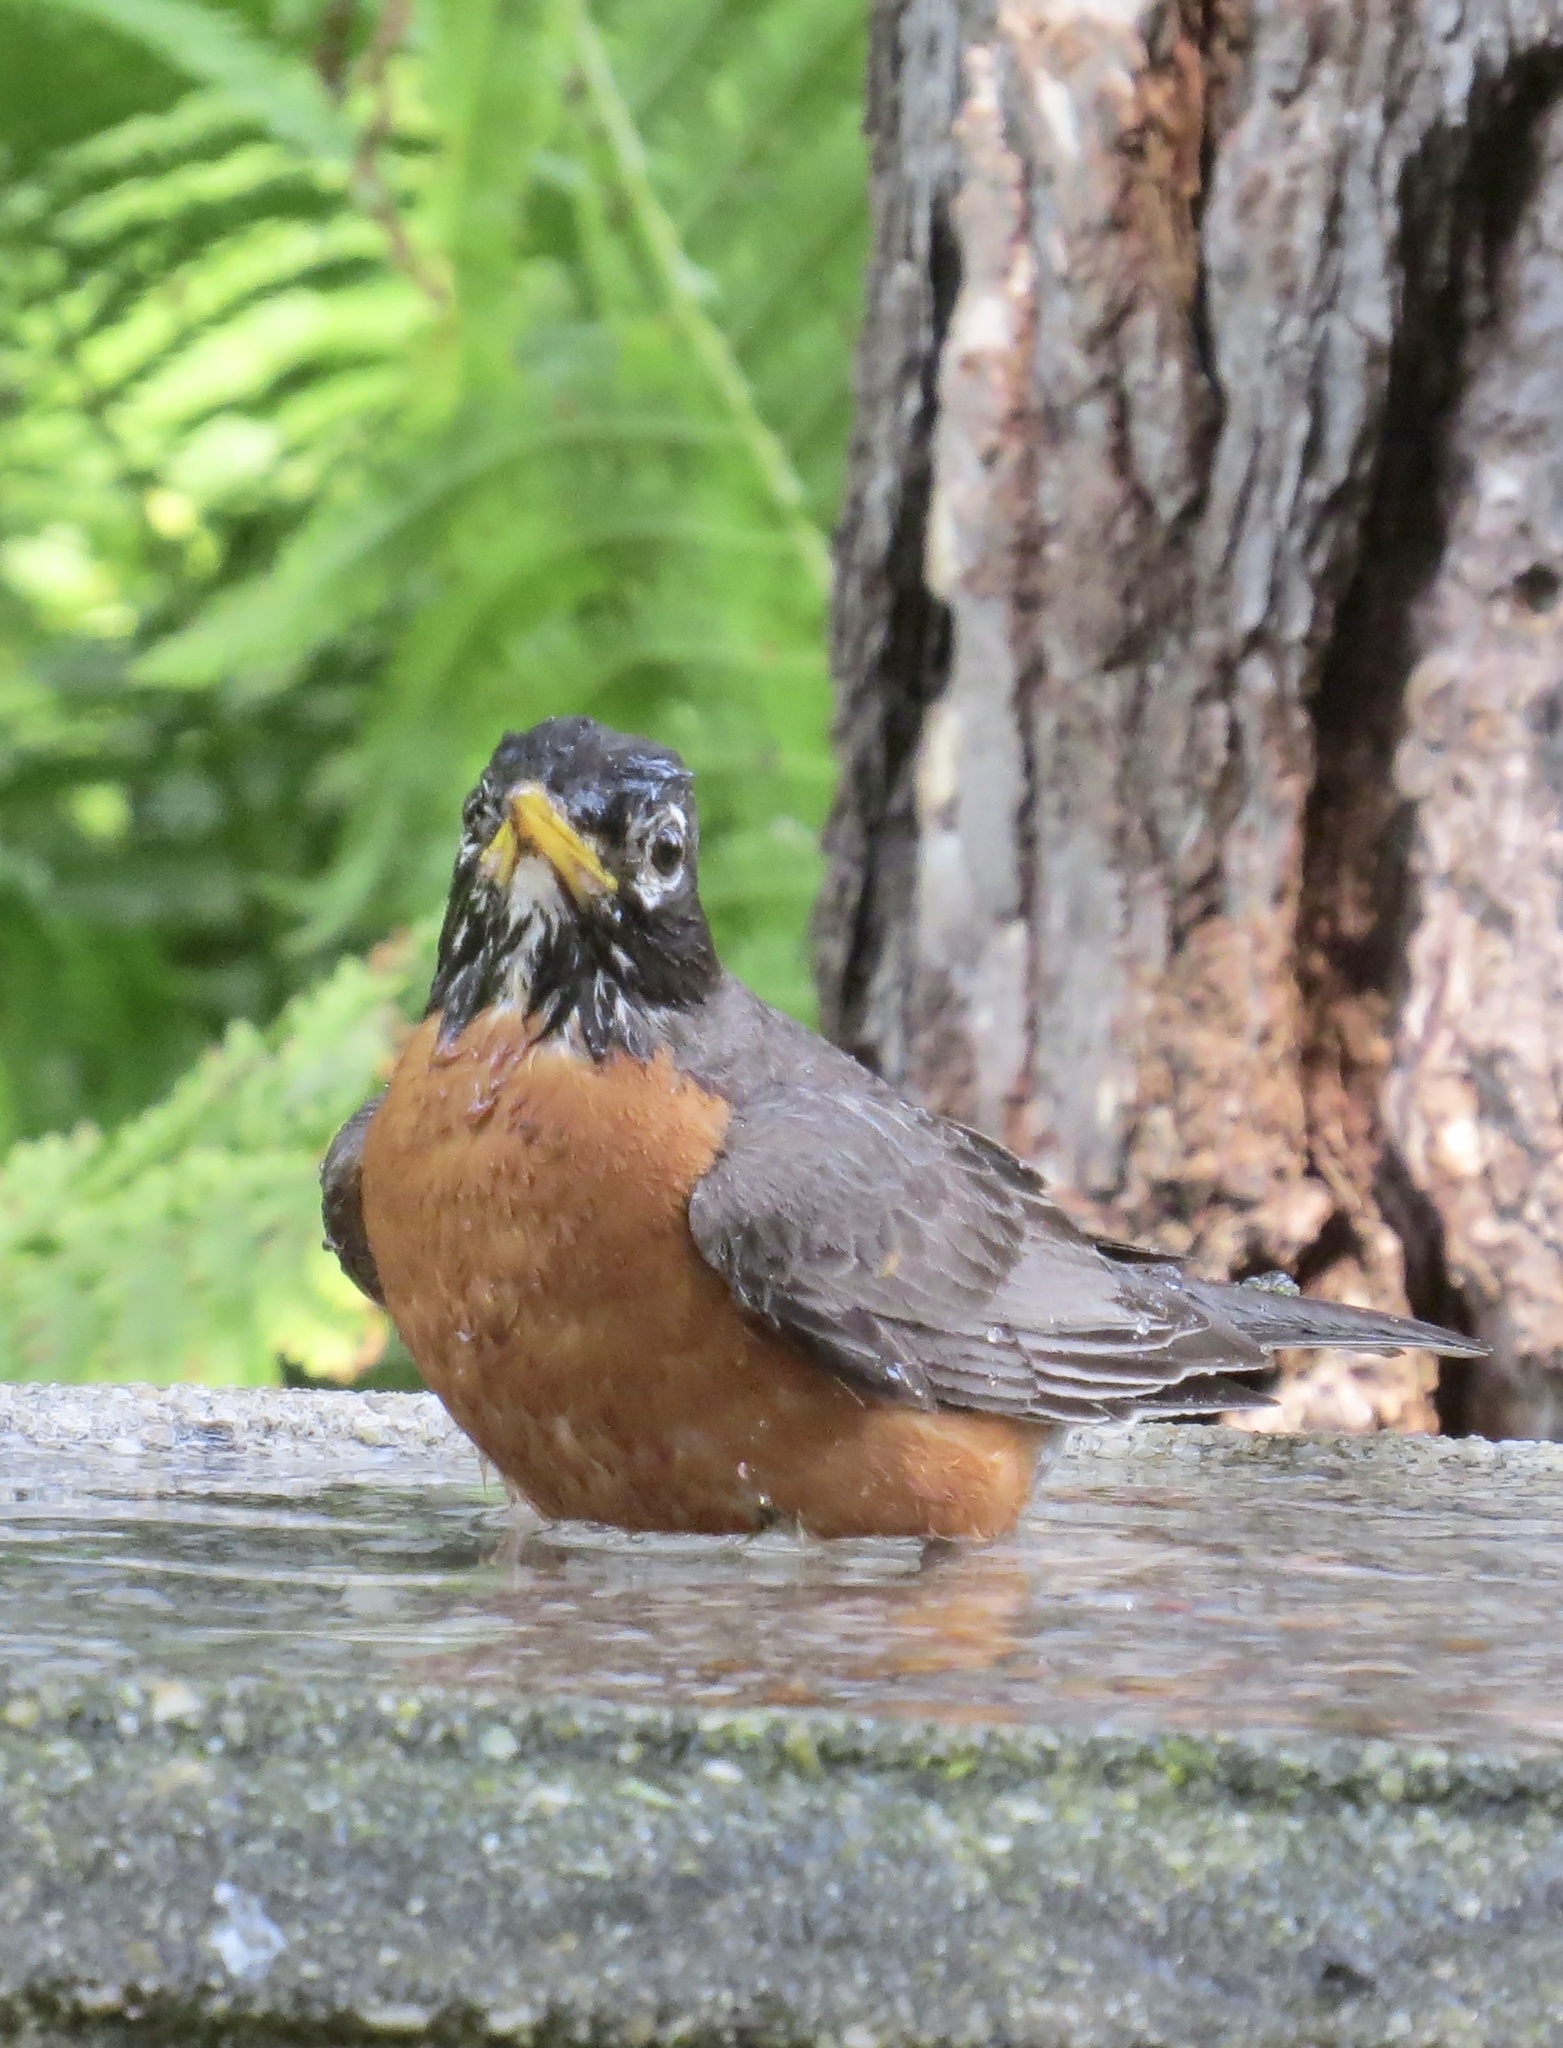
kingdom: Animalia
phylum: Chordata
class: Aves
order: Passeriformes
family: Turdidae
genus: Turdus
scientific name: Turdus migratorius
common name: American robin
